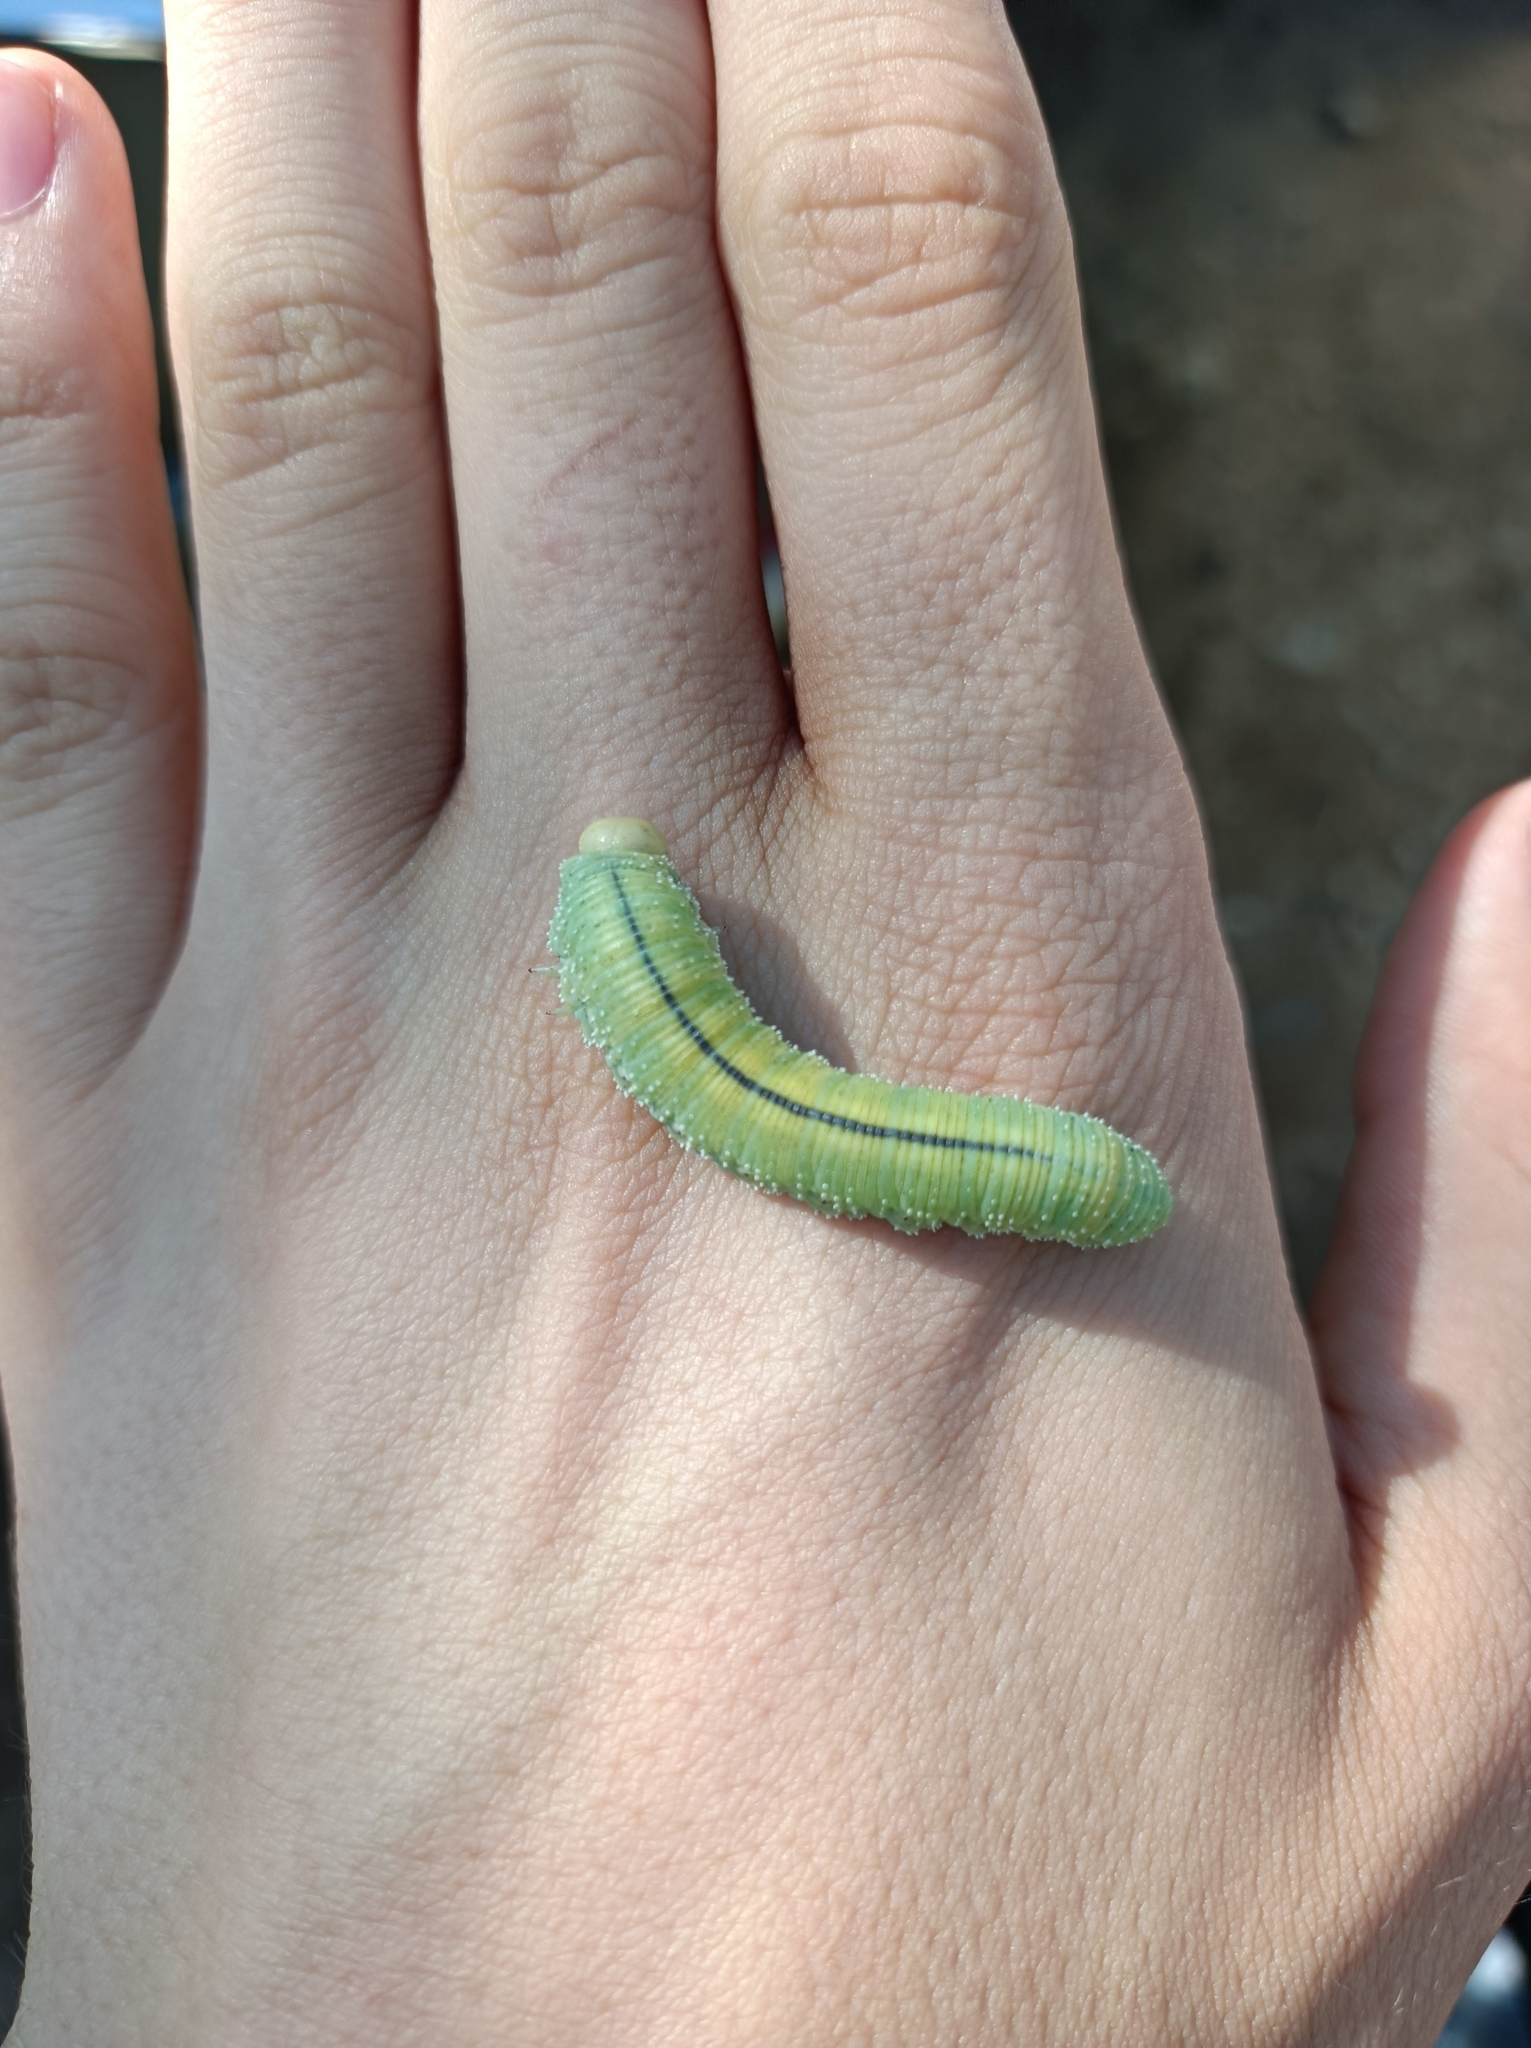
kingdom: Animalia
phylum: Arthropoda
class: Insecta
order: Hymenoptera
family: Cimbicidae
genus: Cimbex
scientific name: Cimbex femoratus
